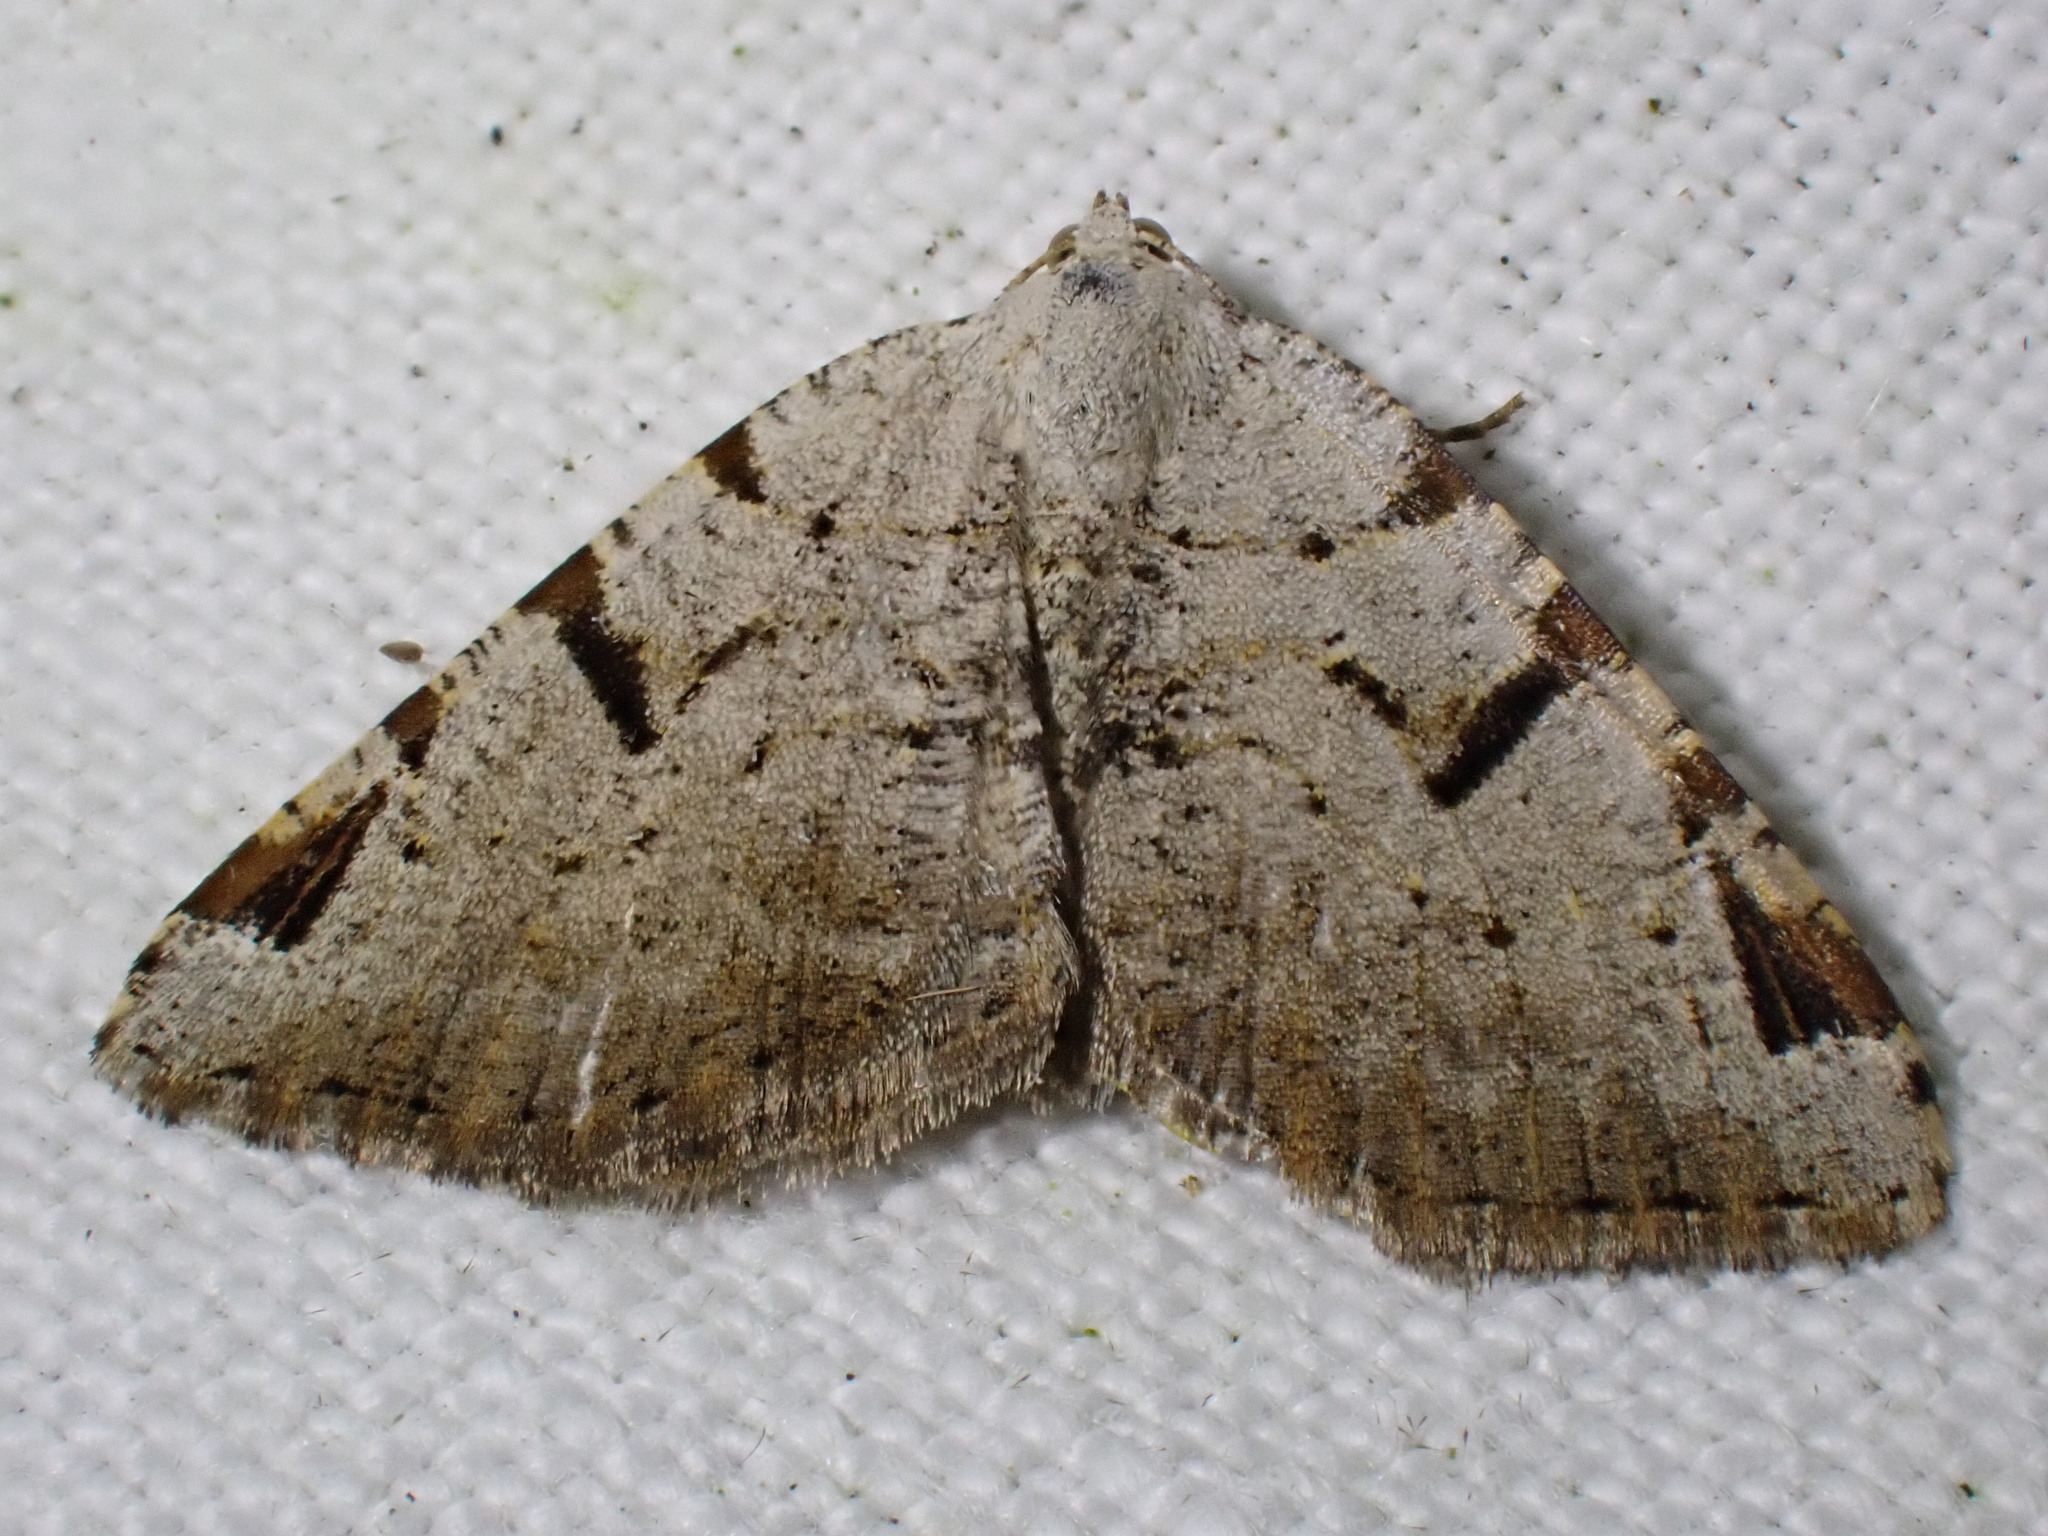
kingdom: Animalia
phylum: Arthropoda
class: Insecta
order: Lepidoptera
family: Geometridae
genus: Macaria
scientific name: Macaria wauaria
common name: V-moth
